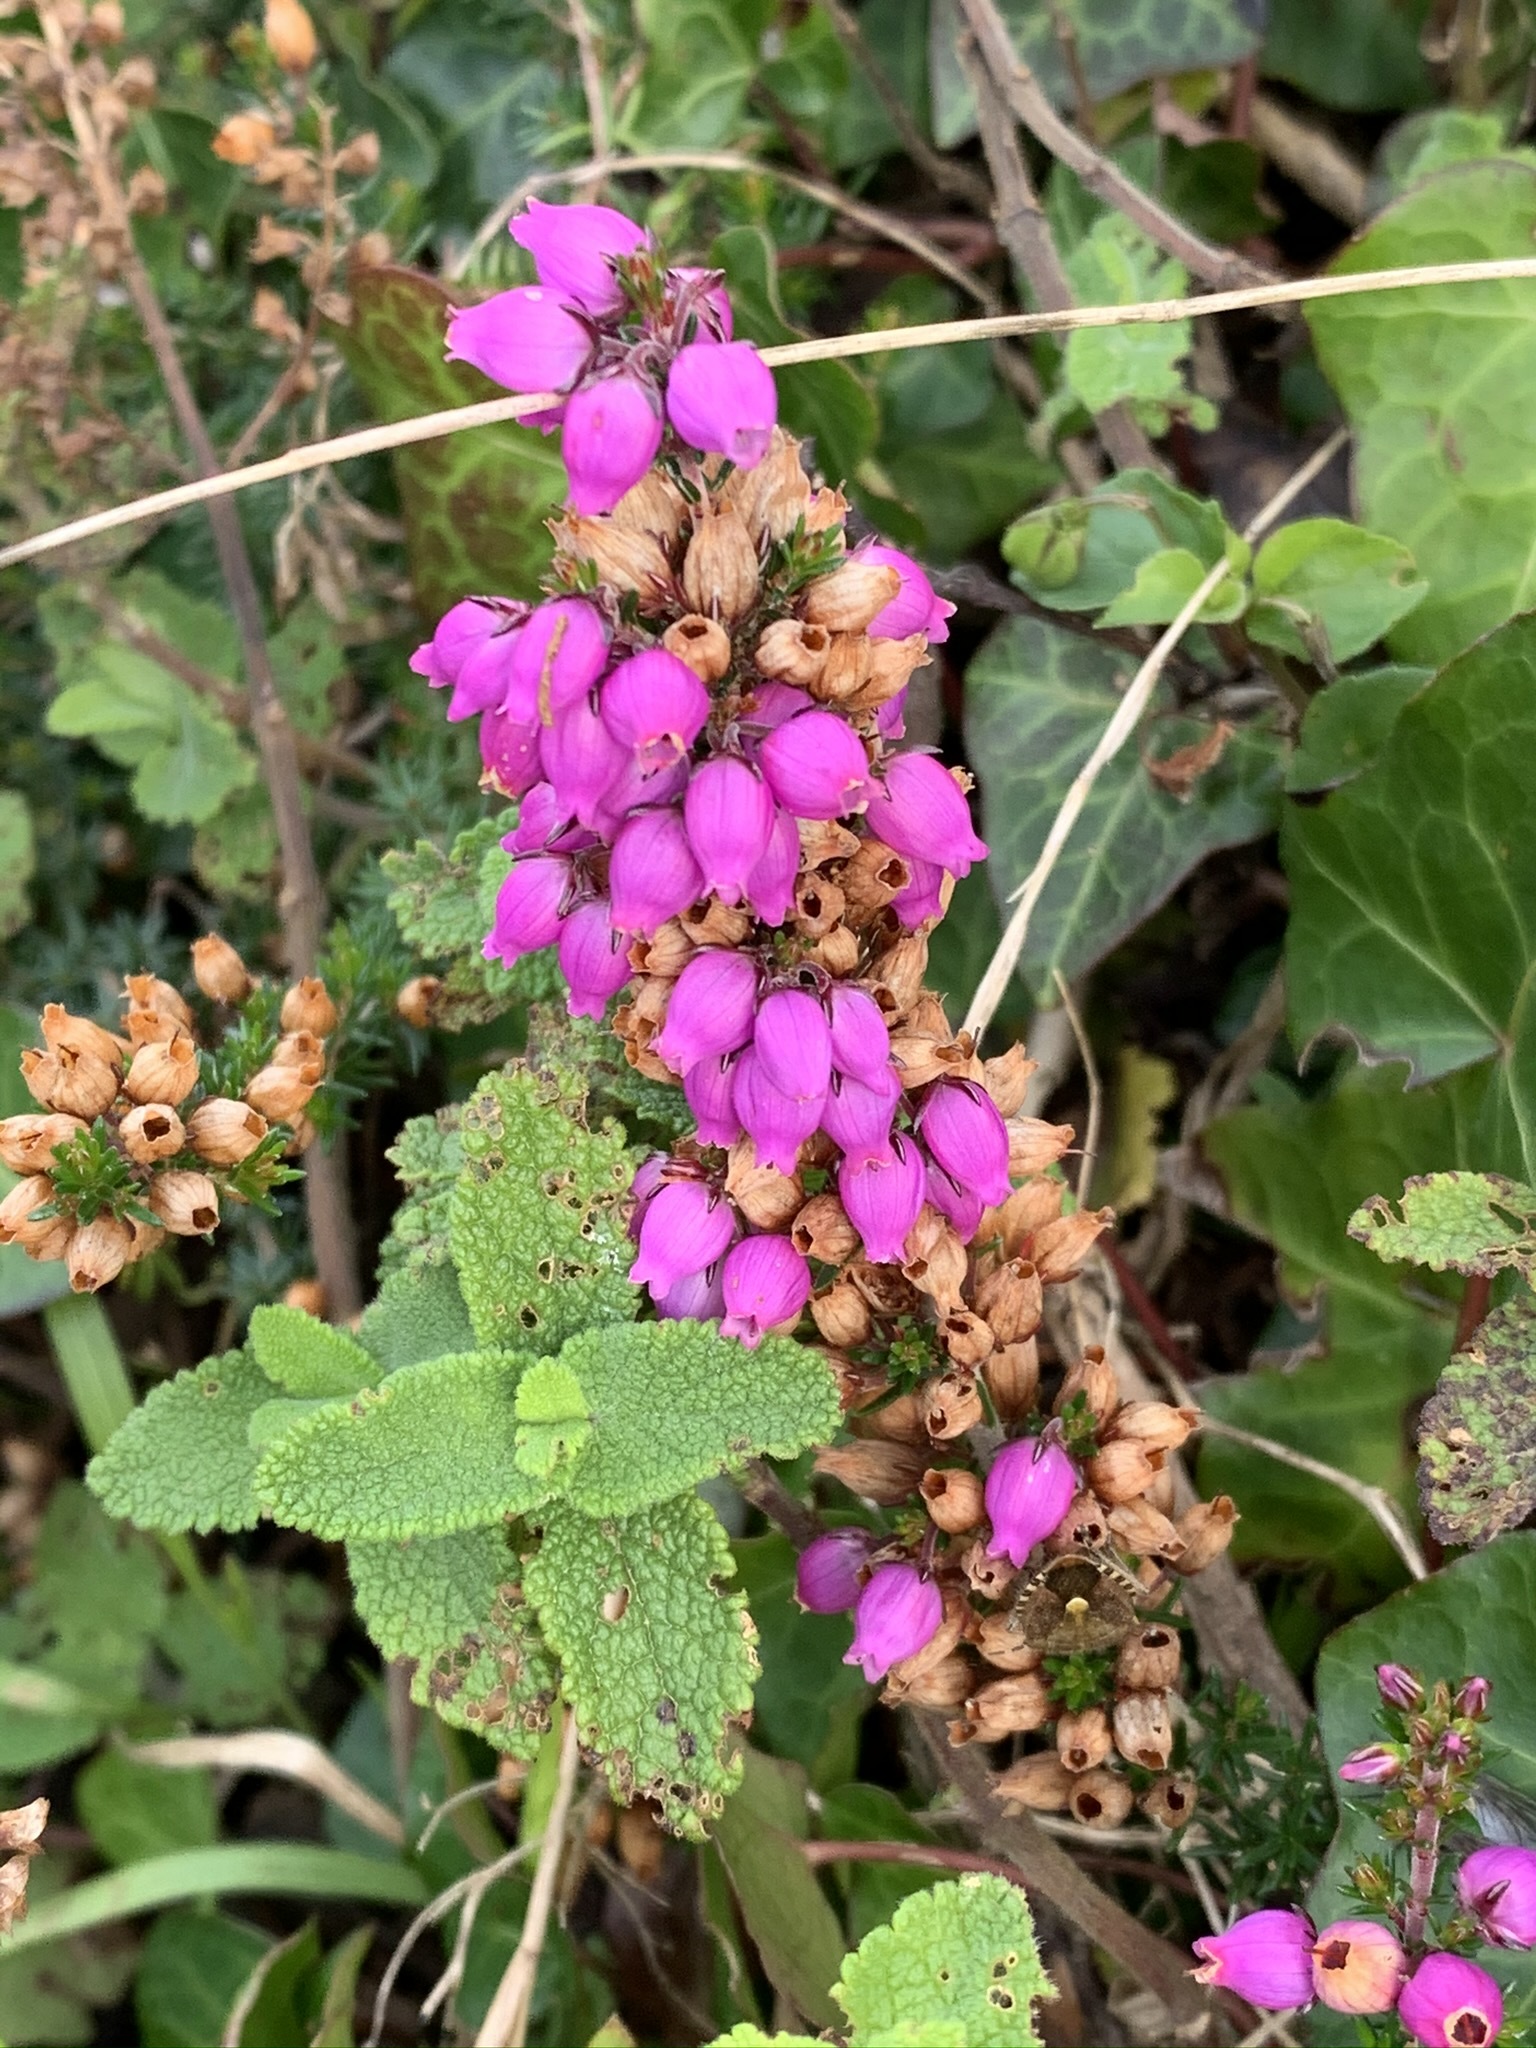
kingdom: Plantae
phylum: Tracheophyta
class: Magnoliopsida
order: Ericales
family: Ericaceae
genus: Erica
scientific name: Erica cinerea
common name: Bell heather
